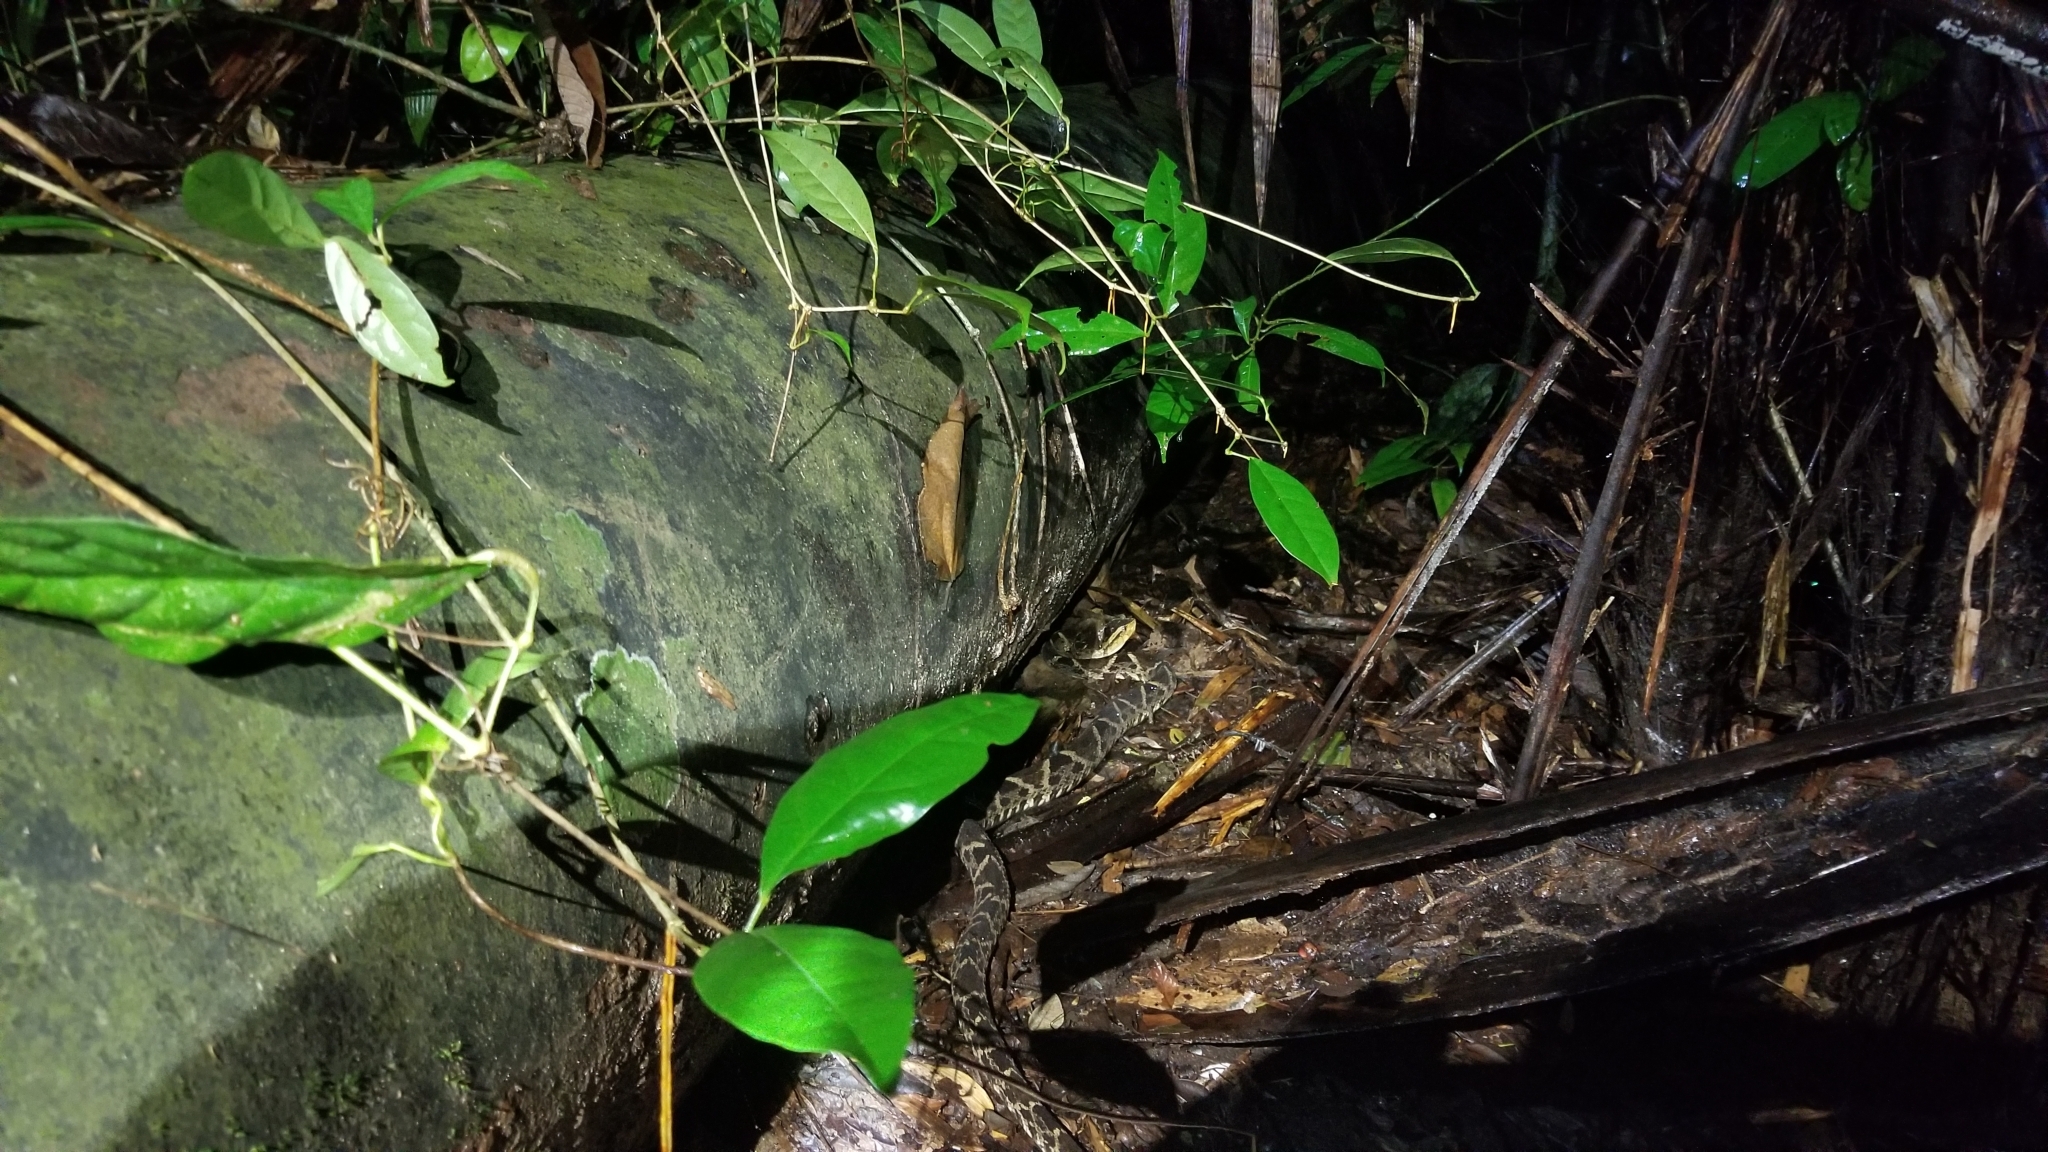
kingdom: Animalia
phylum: Chordata
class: Squamata
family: Viperidae
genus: Bothrops
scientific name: Bothrops asper
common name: Terciopelo
